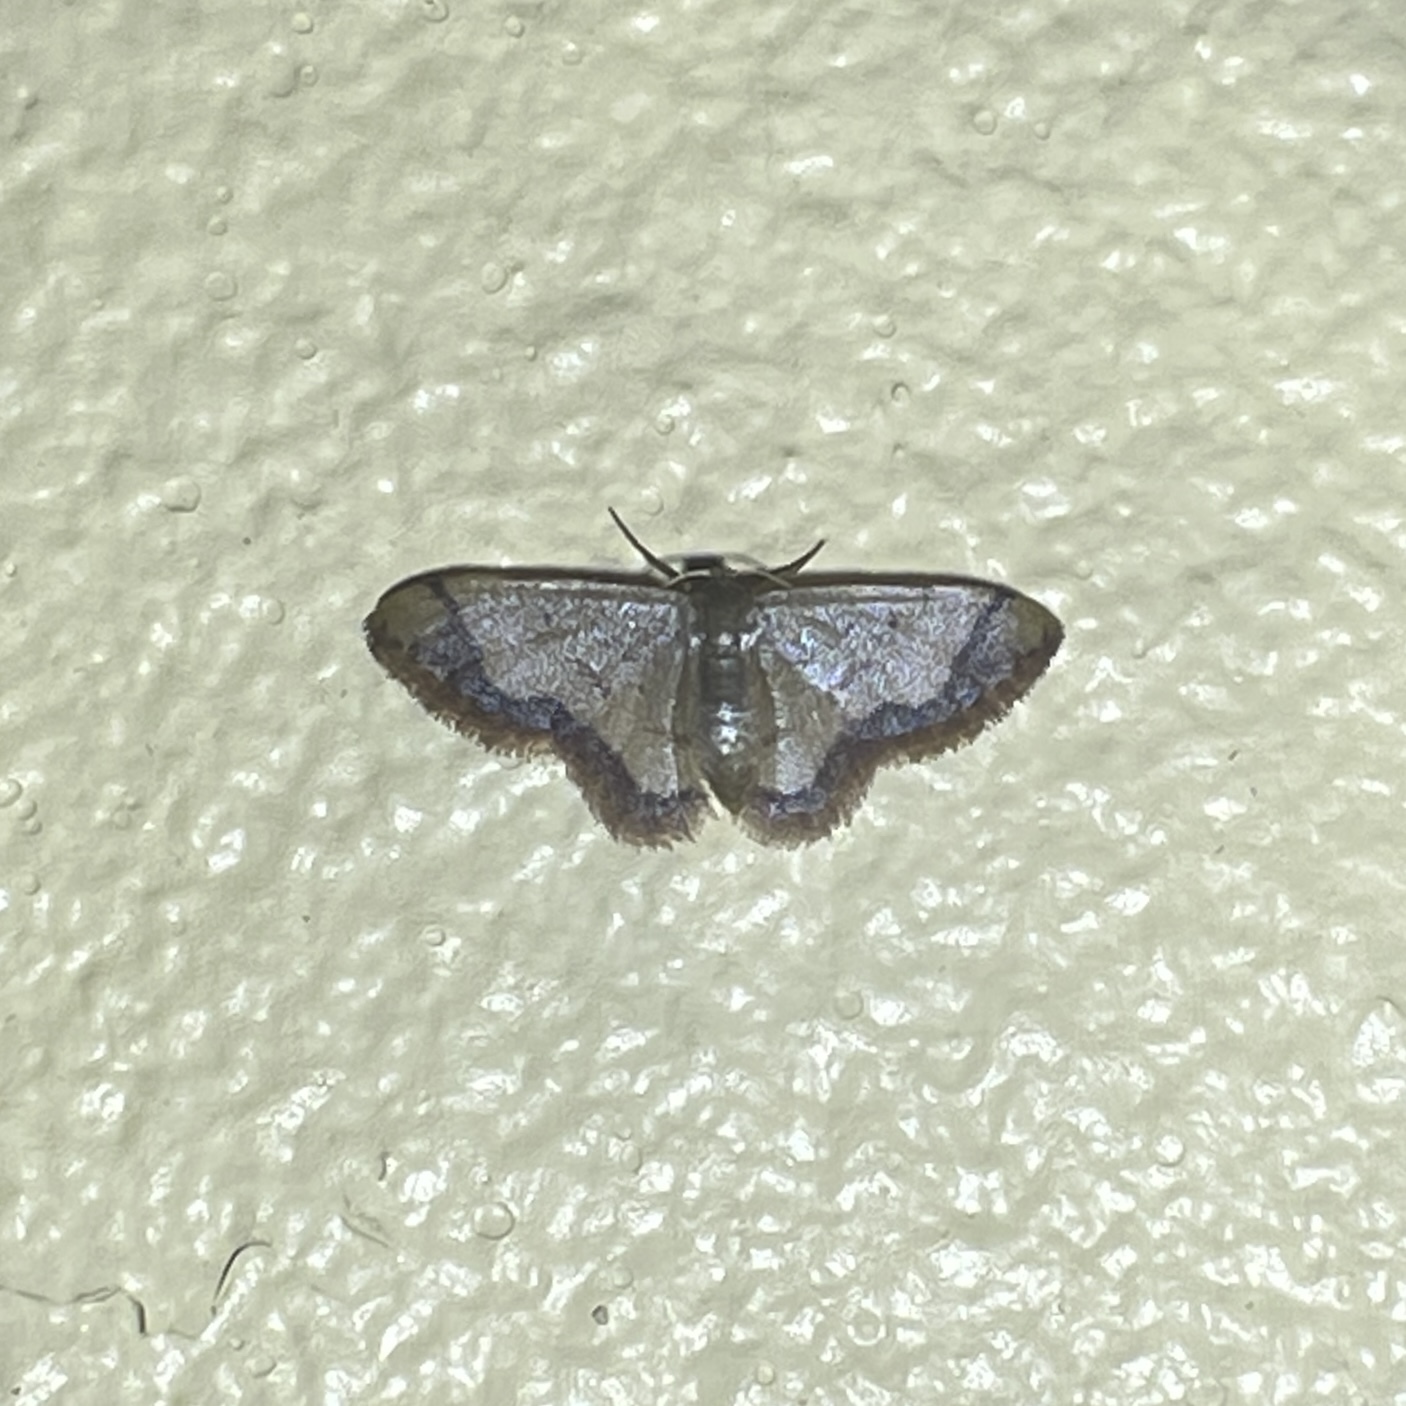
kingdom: Animalia
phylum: Arthropoda
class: Insecta
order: Lepidoptera
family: Geometridae
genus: Idaea
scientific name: Idaea rufulata
